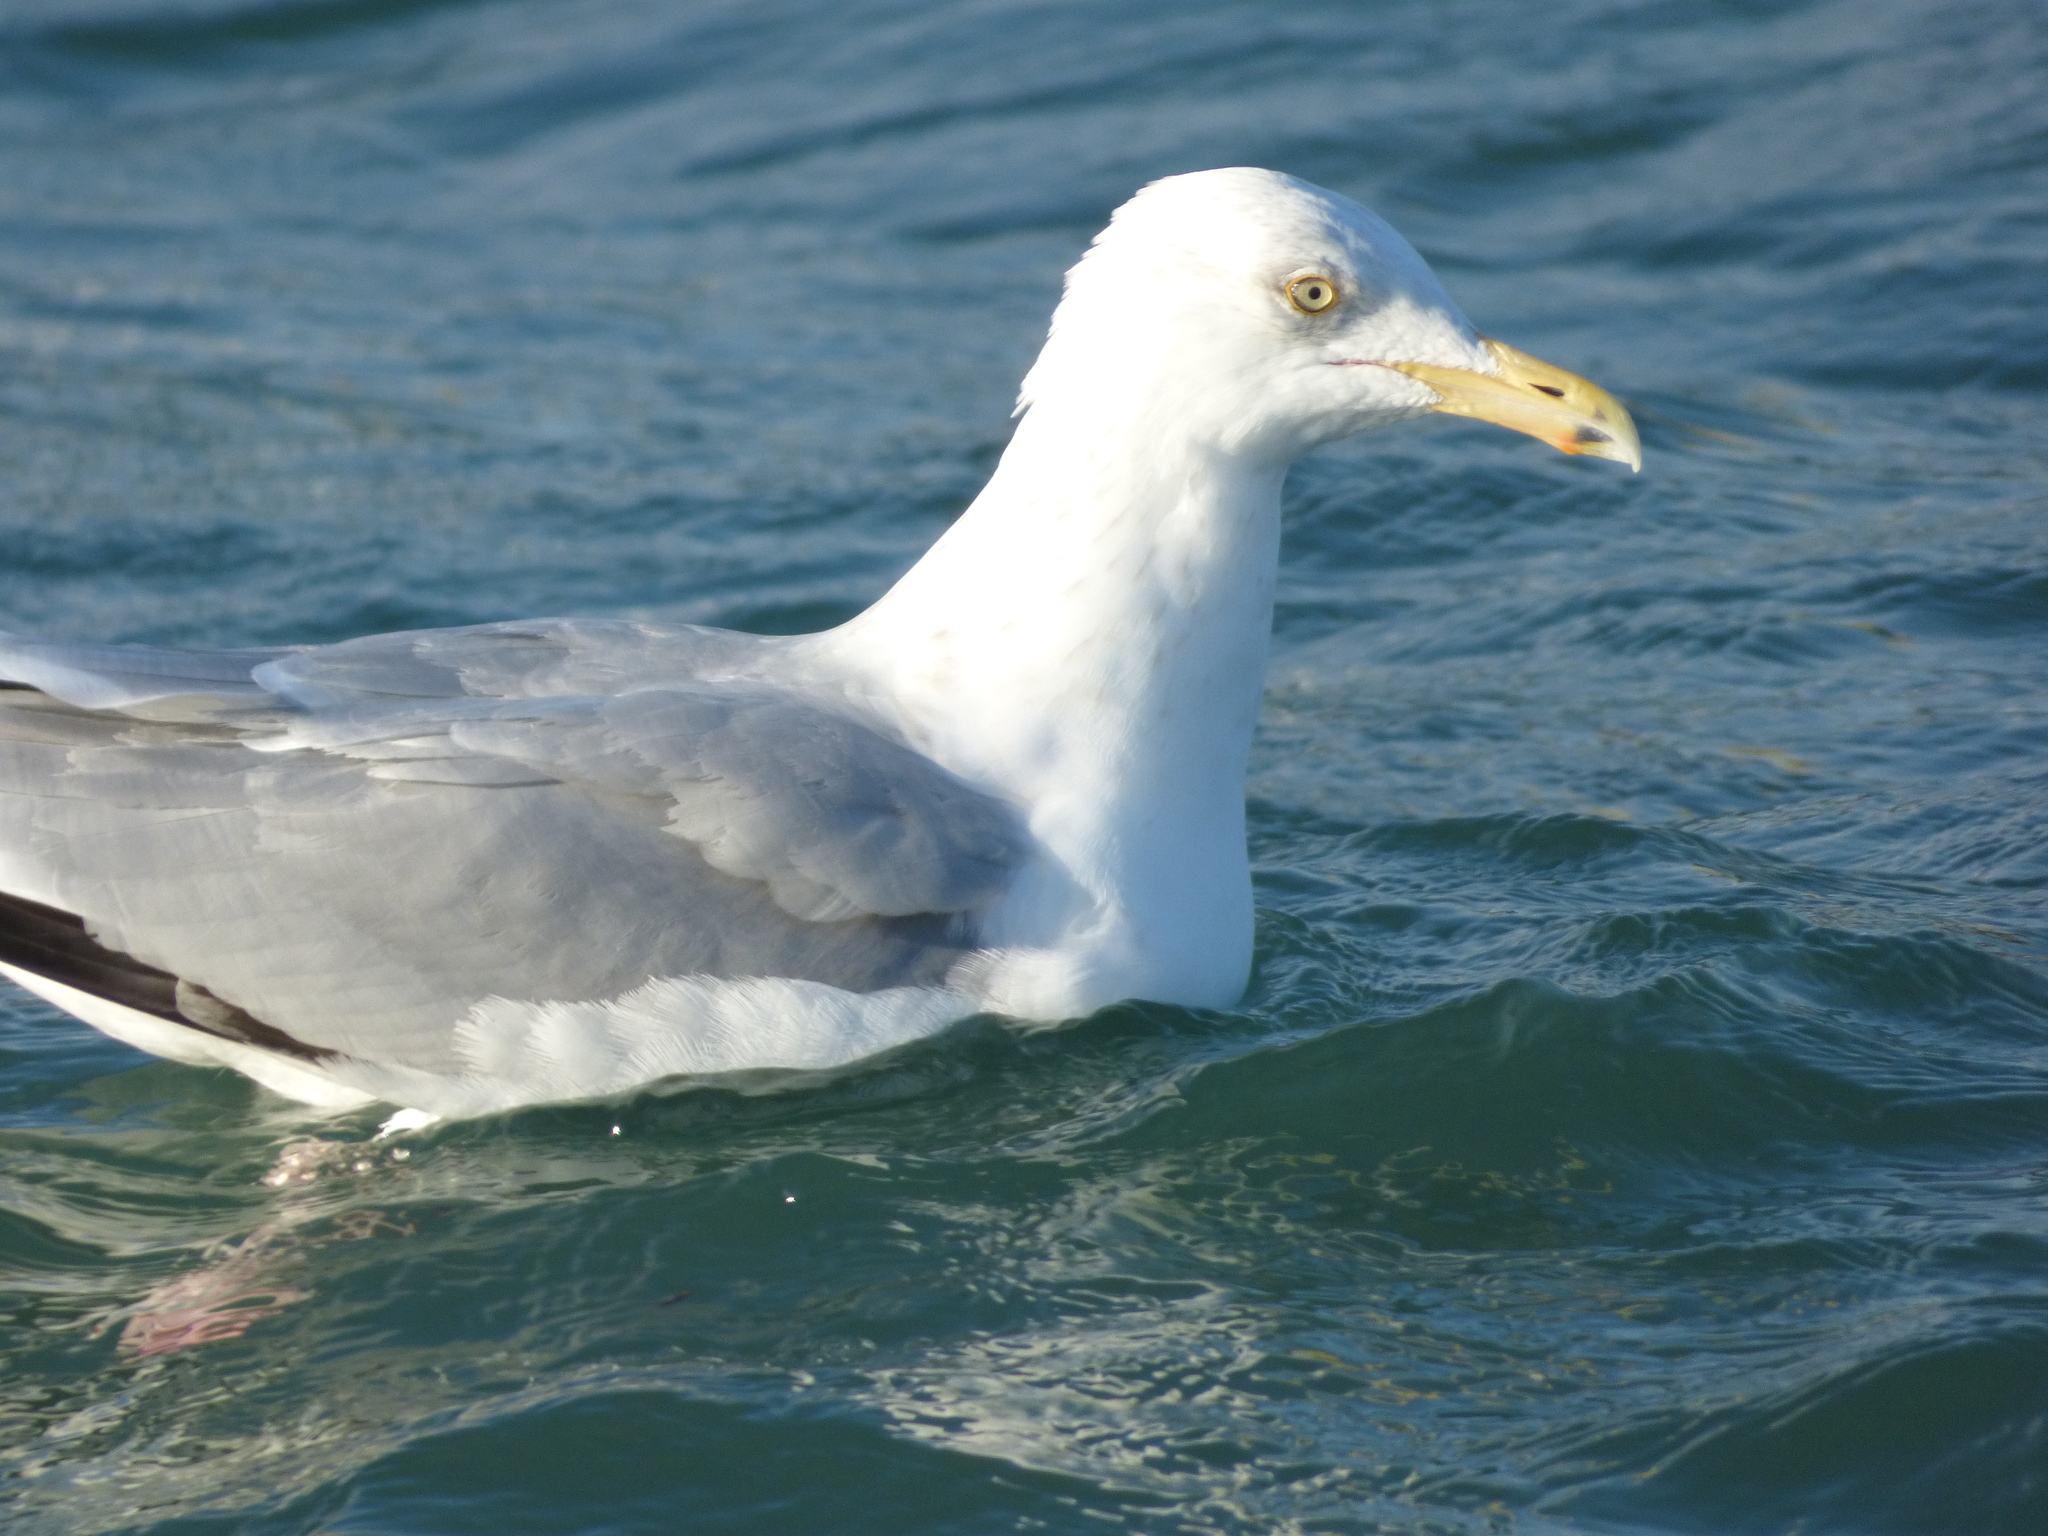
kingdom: Animalia
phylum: Chordata
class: Aves
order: Charadriiformes
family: Laridae
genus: Larus
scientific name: Larus argentatus
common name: Herring gull
